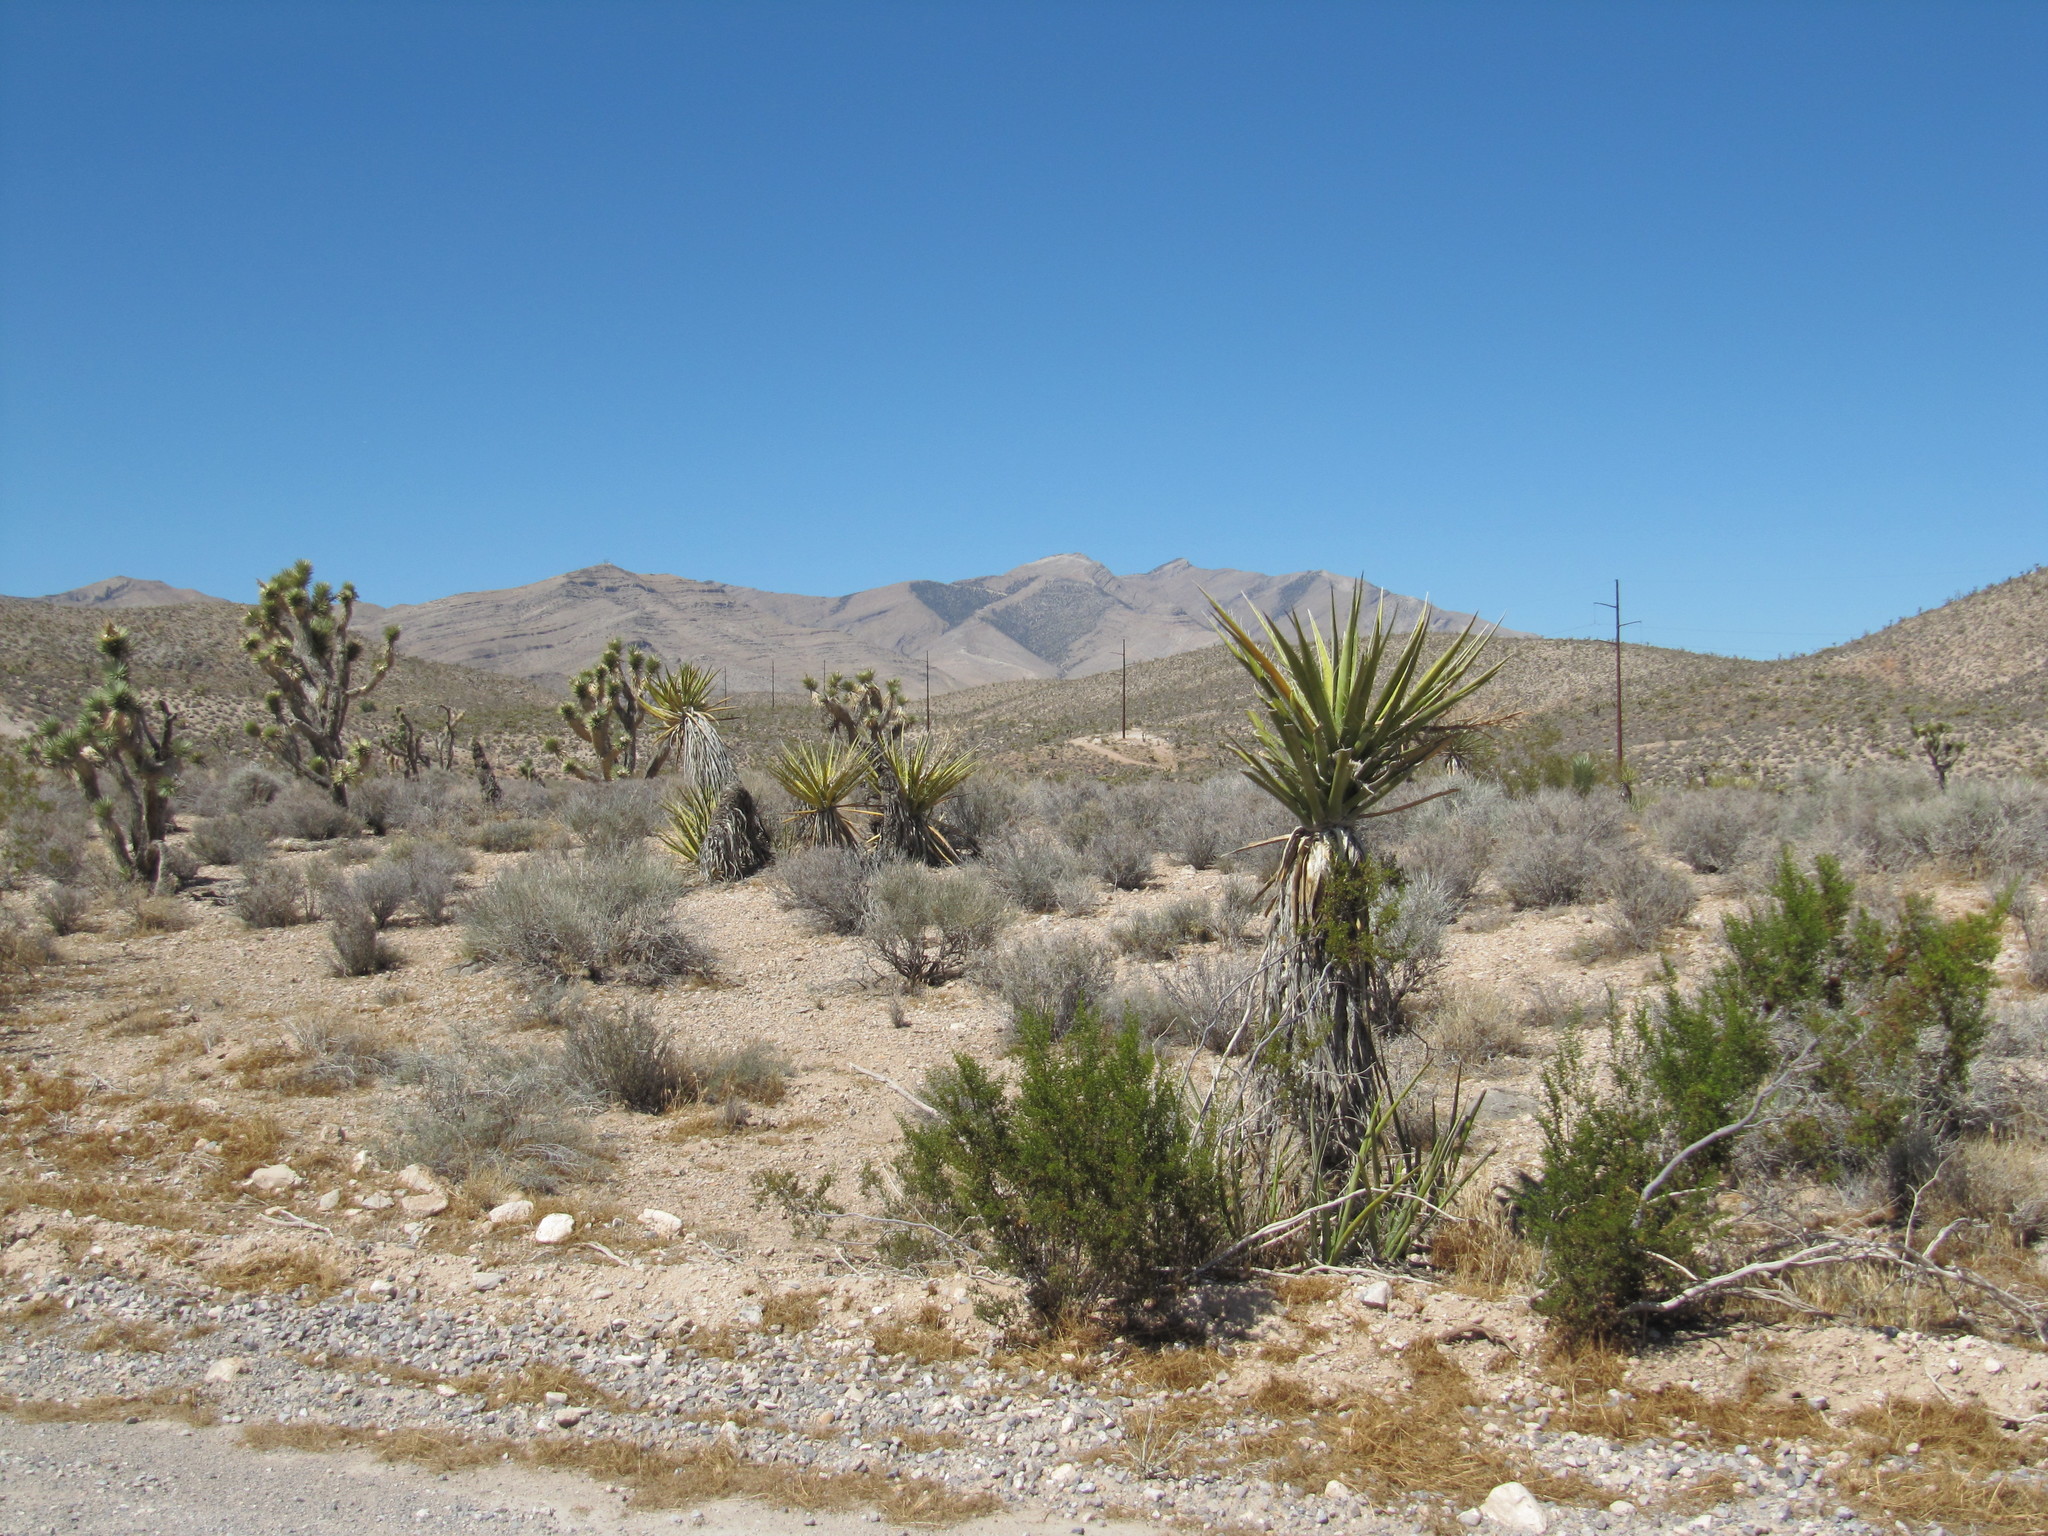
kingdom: Plantae
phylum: Tracheophyta
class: Liliopsida
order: Asparagales
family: Asparagaceae
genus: Yucca
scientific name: Yucca brevifolia
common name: Joshua tree
